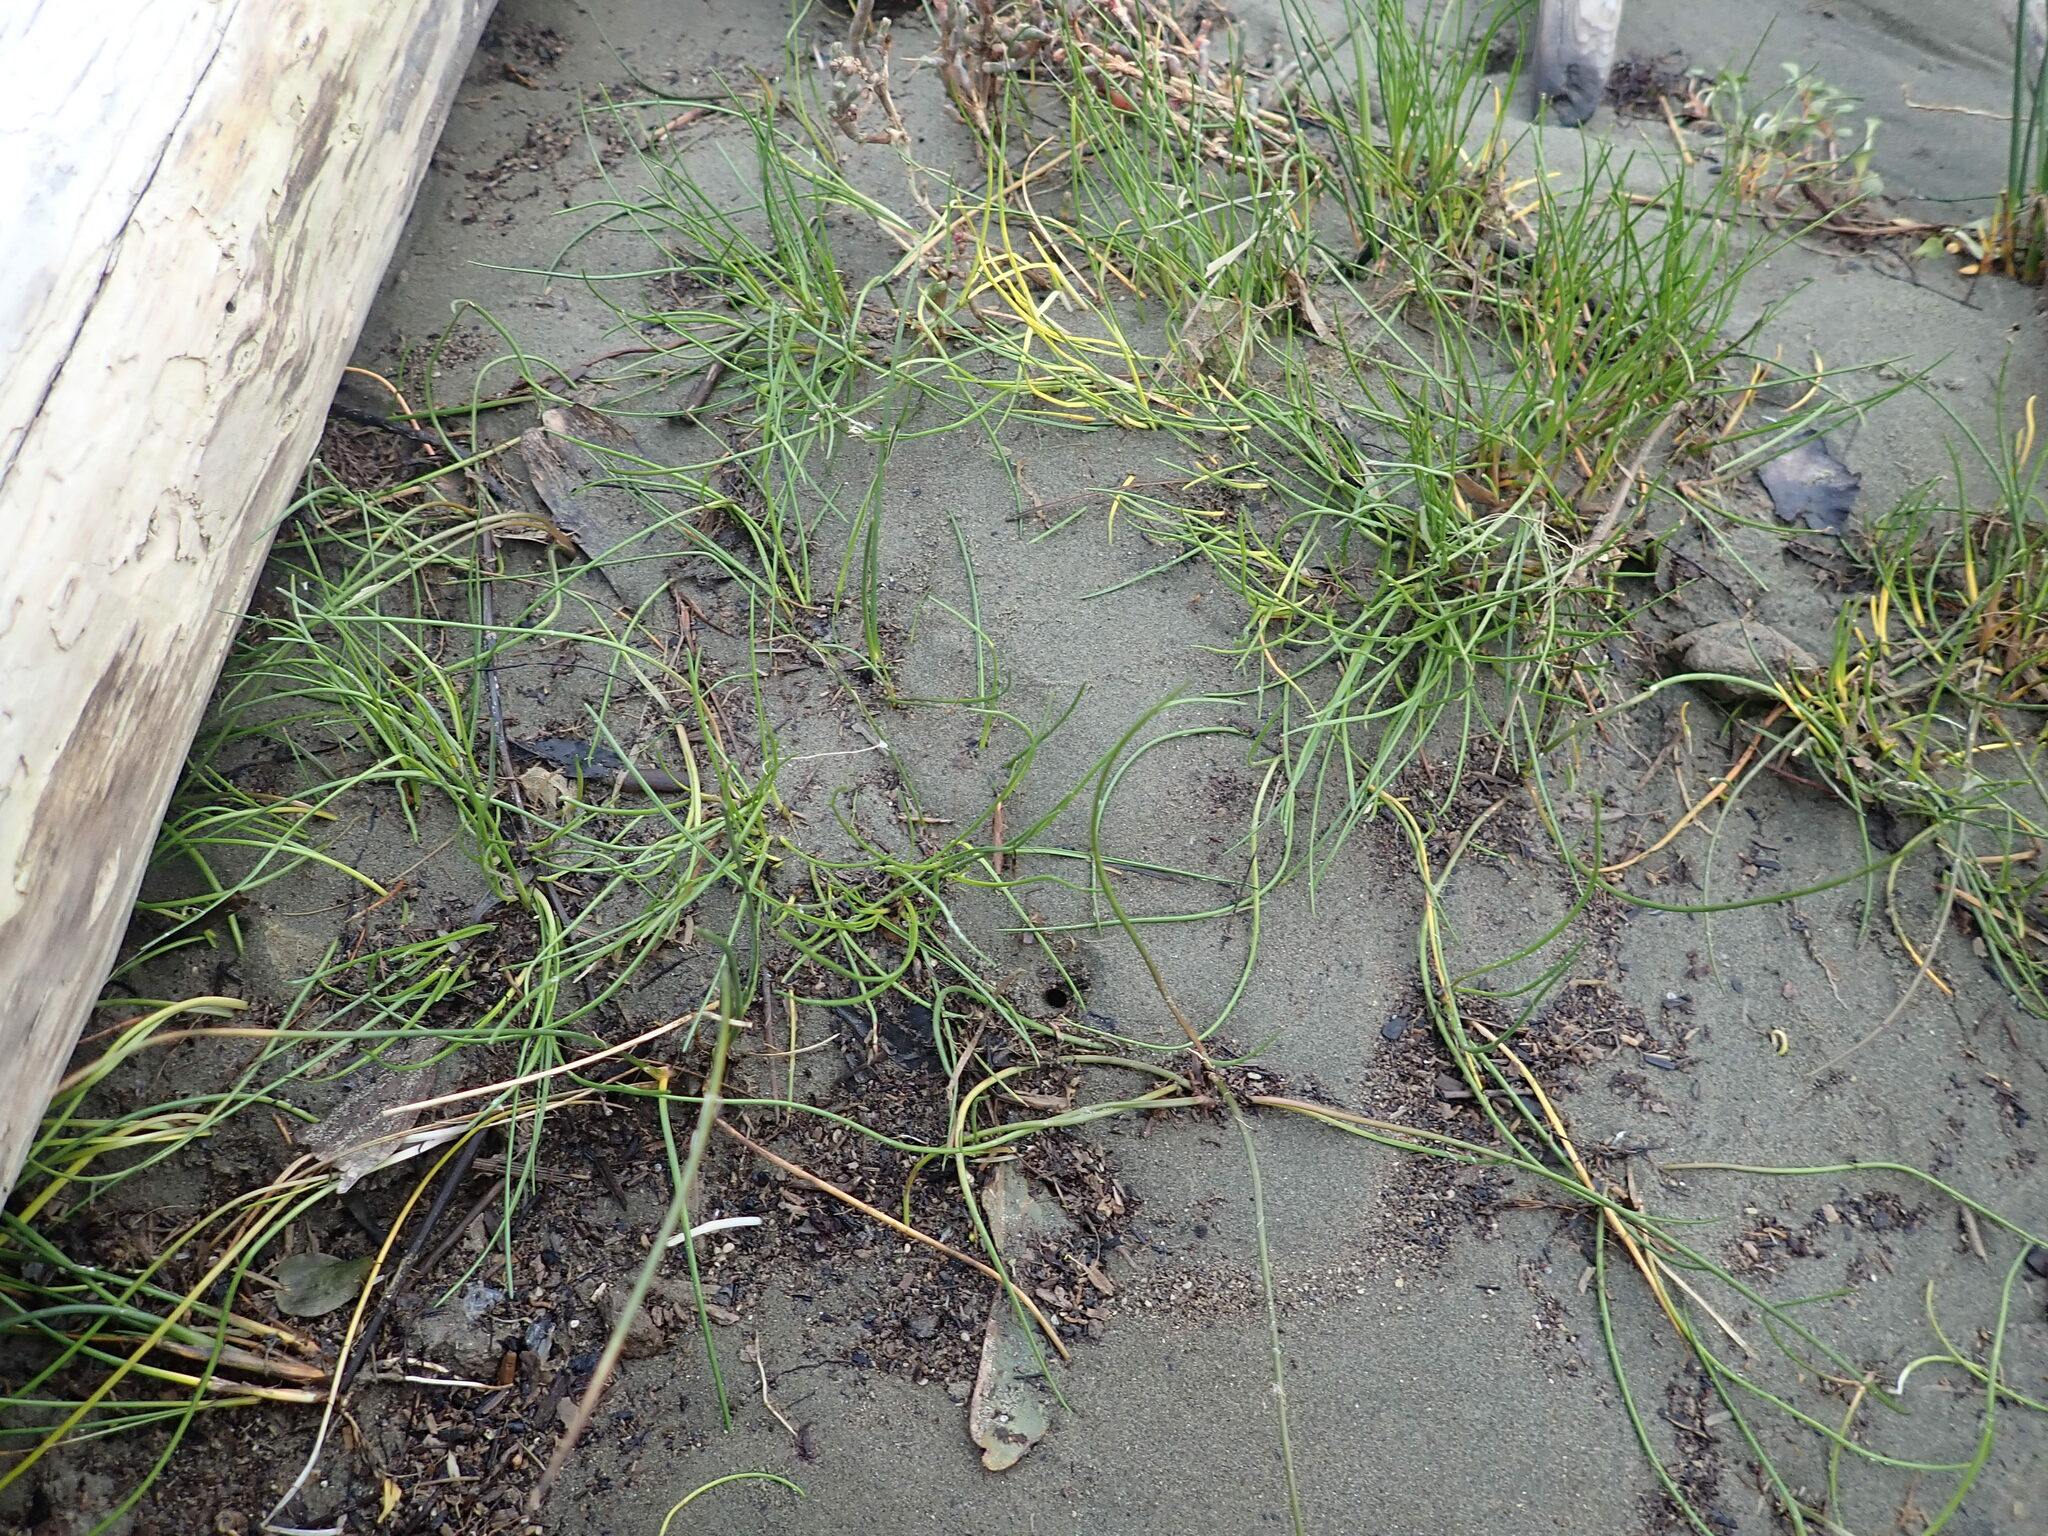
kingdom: Plantae
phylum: Tracheophyta
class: Liliopsida
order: Alismatales
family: Juncaginaceae
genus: Triglochin
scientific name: Triglochin striata
